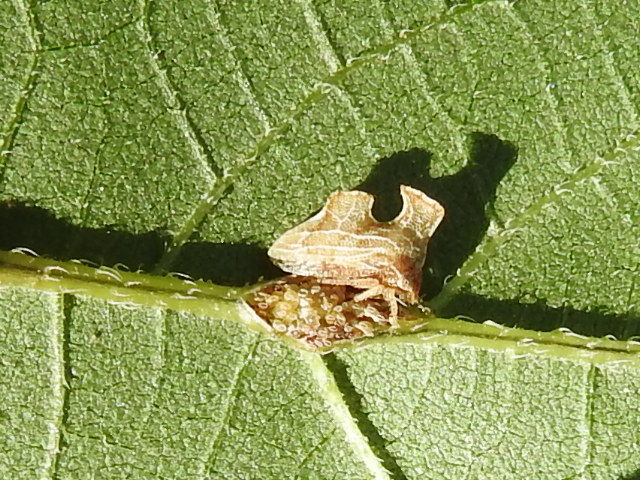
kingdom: Animalia
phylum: Arthropoda
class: Insecta
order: Hemiptera
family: Membracidae
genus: Entylia
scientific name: Entylia carinata
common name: Keeled treehopper
